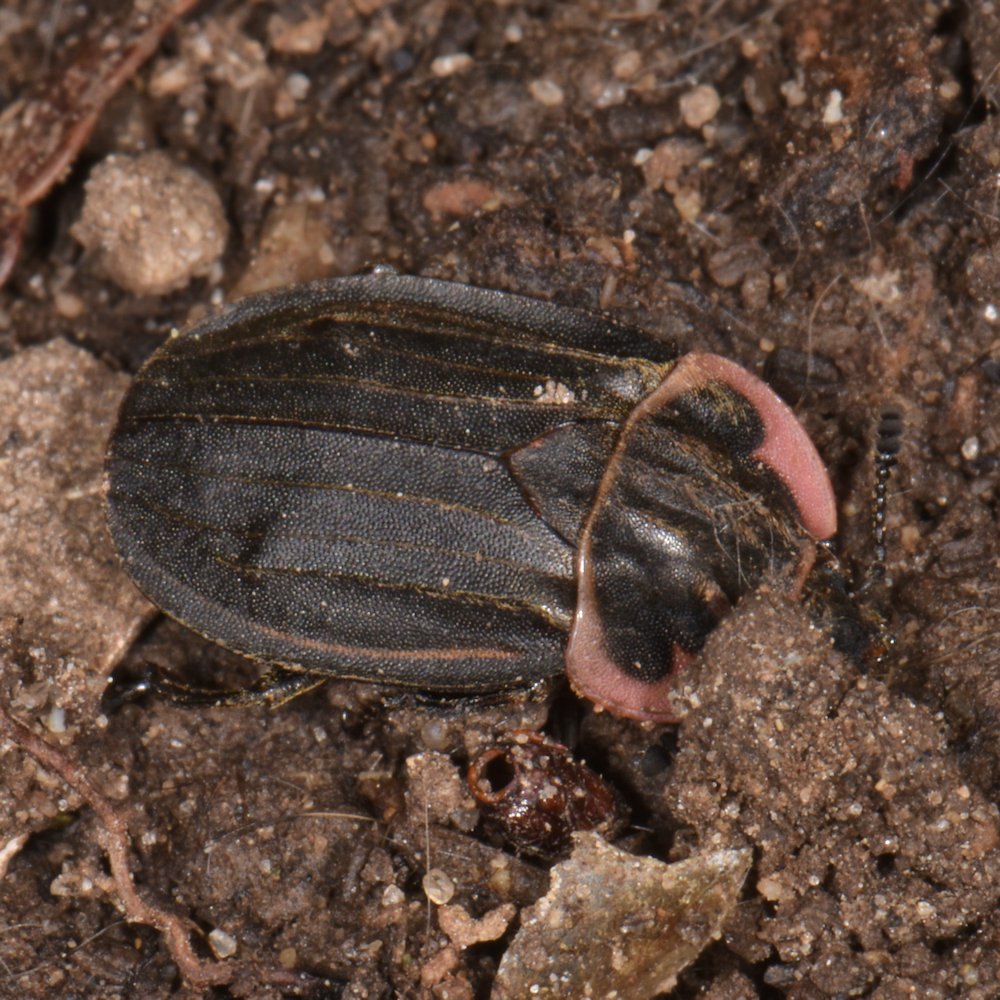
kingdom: Animalia
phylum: Arthropoda
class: Insecta
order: Coleoptera
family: Staphylinidae
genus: Oiceoptoma
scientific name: Oiceoptoma noveboracense
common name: Margined carrion beetle
